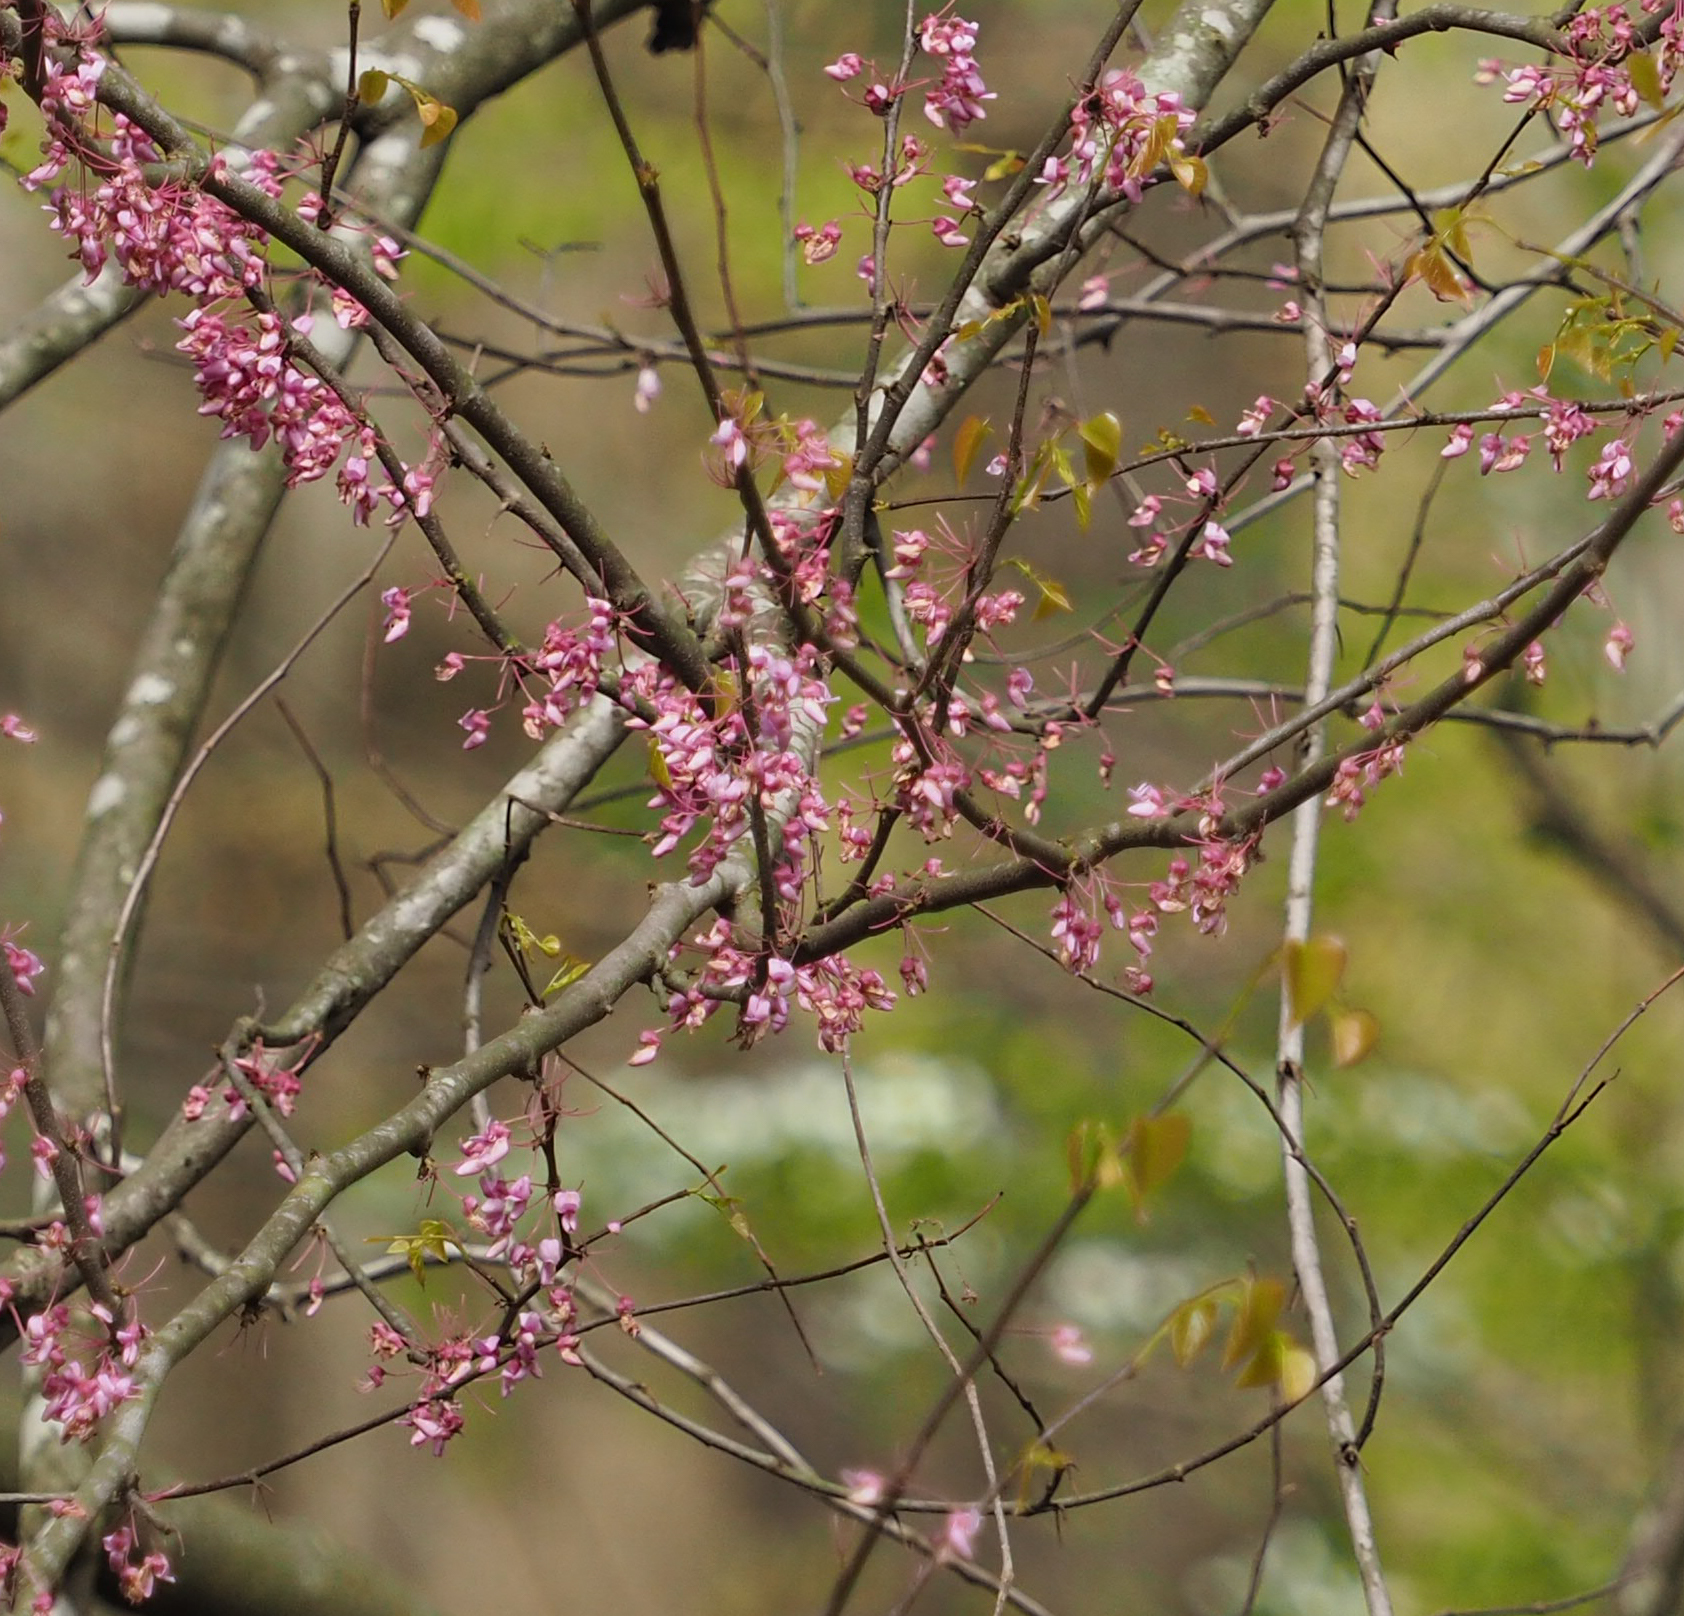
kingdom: Plantae
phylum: Tracheophyta
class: Magnoliopsida
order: Fabales
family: Fabaceae
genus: Cercis
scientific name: Cercis canadensis
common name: Eastern redbud
